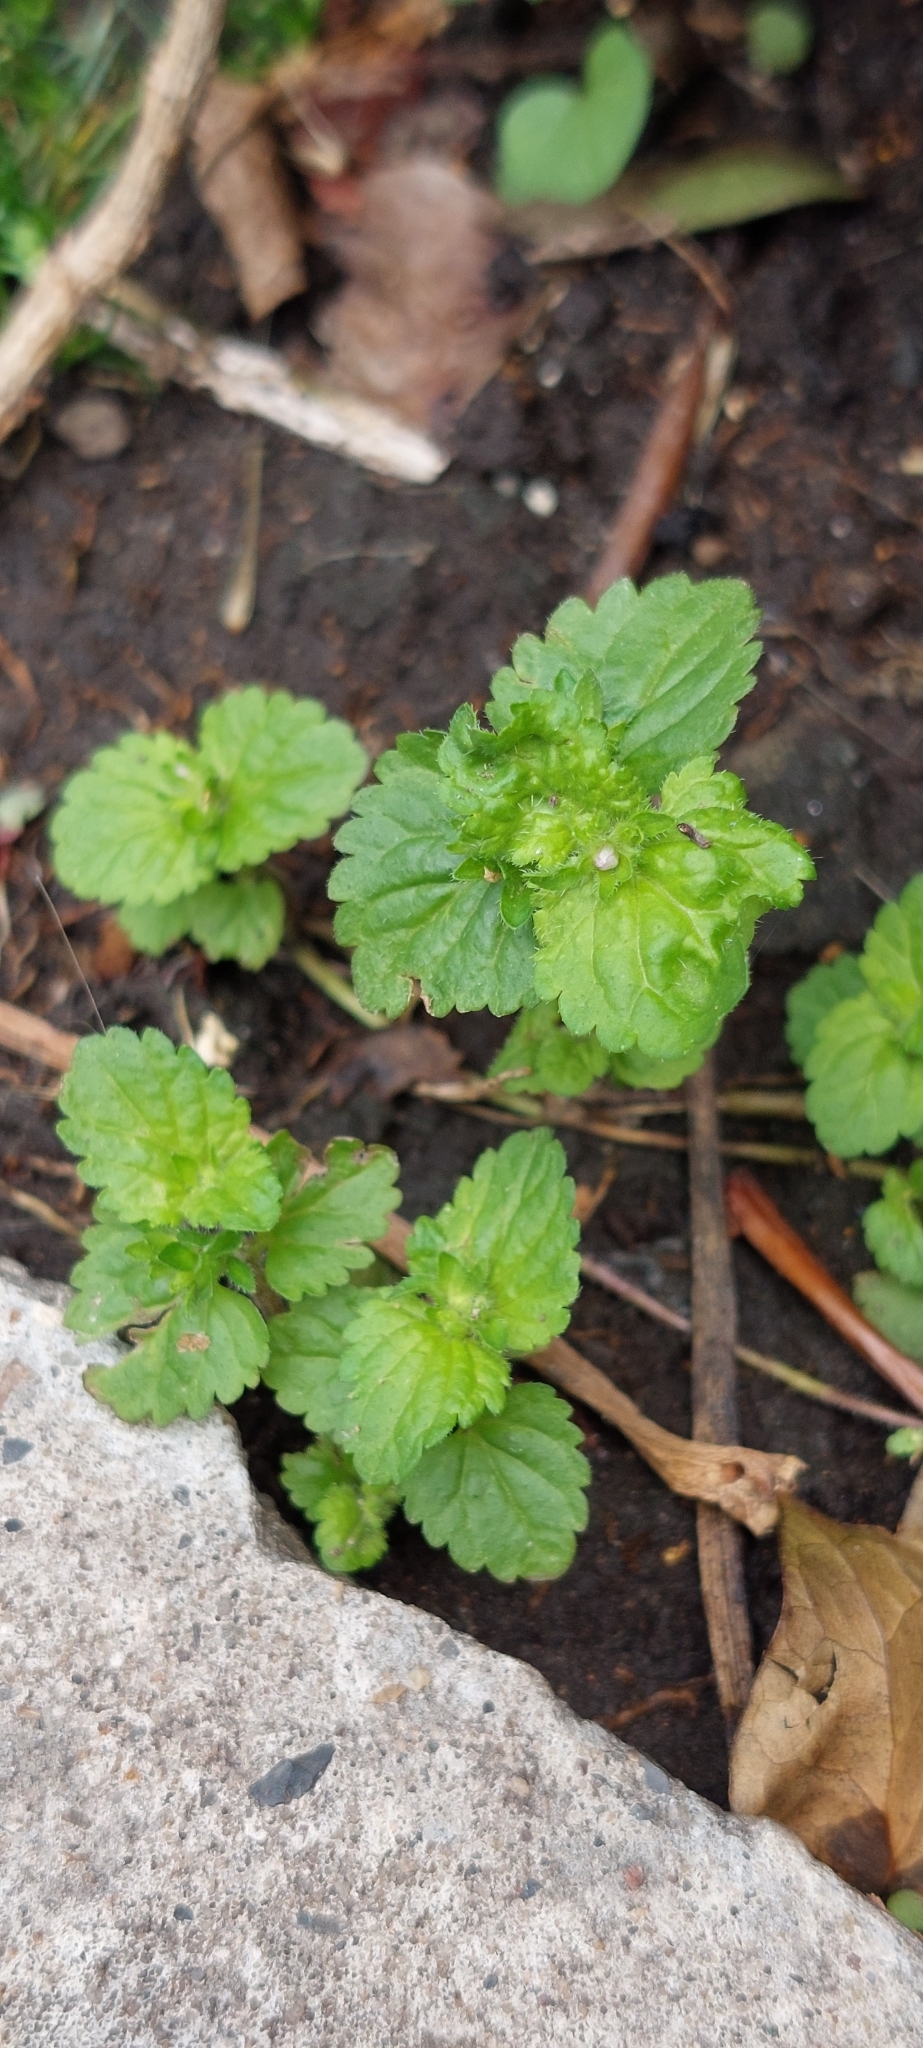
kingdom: Plantae
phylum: Tracheophyta
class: Magnoliopsida
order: Lamiales
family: Plantaginaceae
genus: Veronica
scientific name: Veronica javanica
